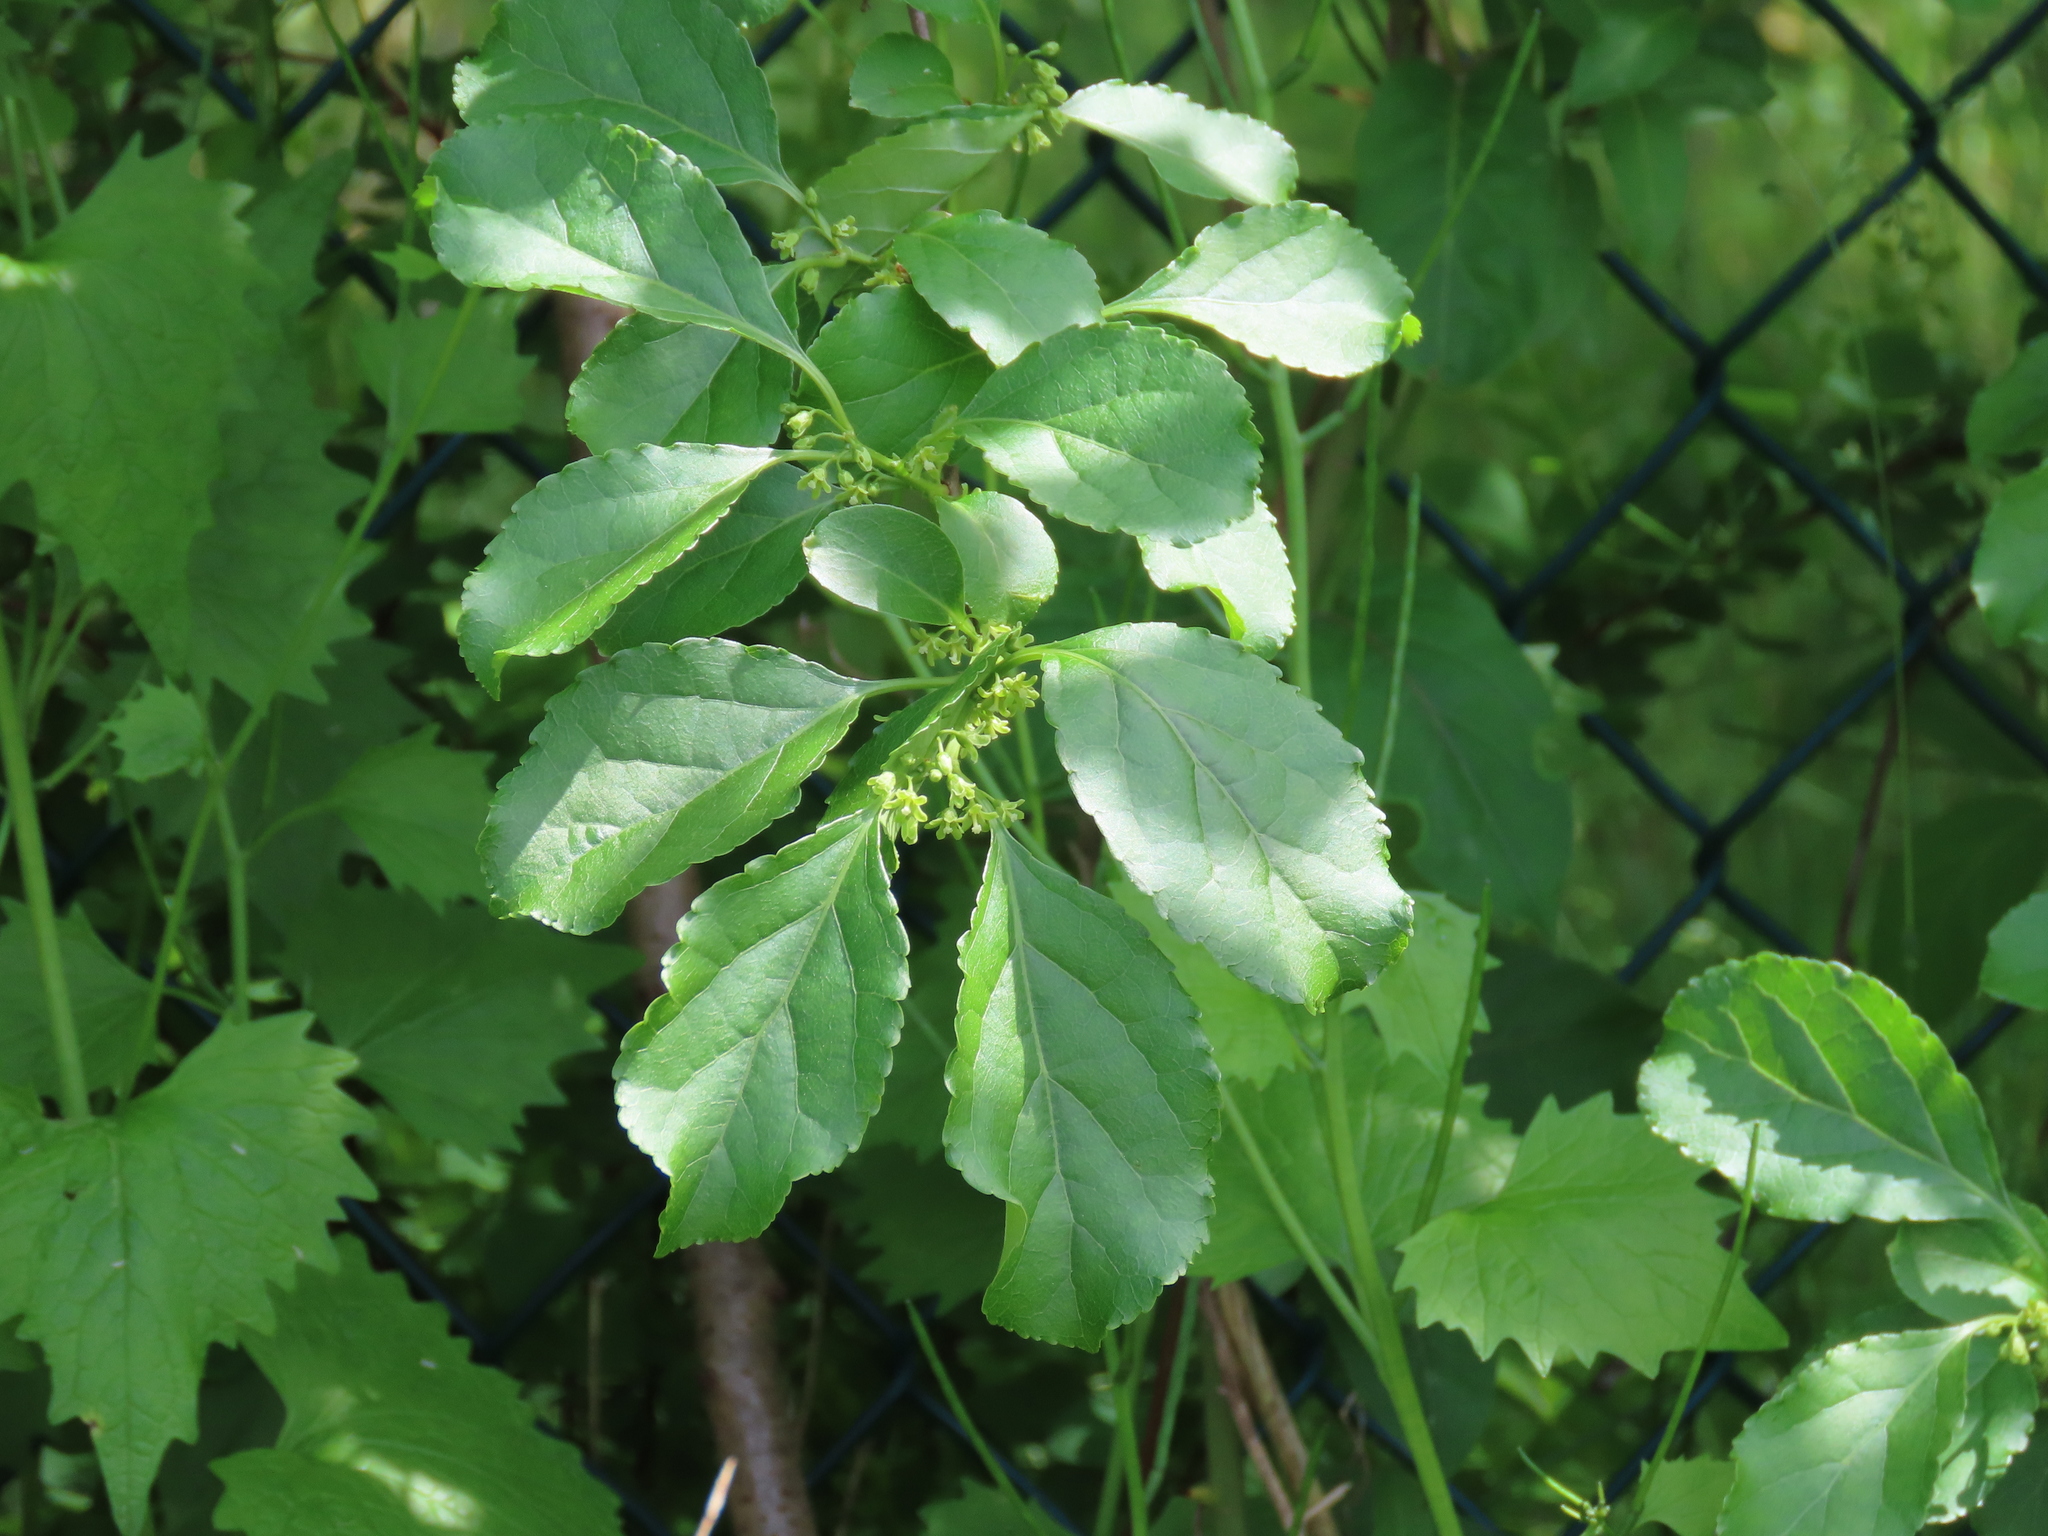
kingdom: Plantae
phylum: Tracheophyta
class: Magnoliopsida
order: Celastrales
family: Celastraceae
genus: Celastrus
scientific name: Celastrus orbiculatus
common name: Oriental bittersweet
